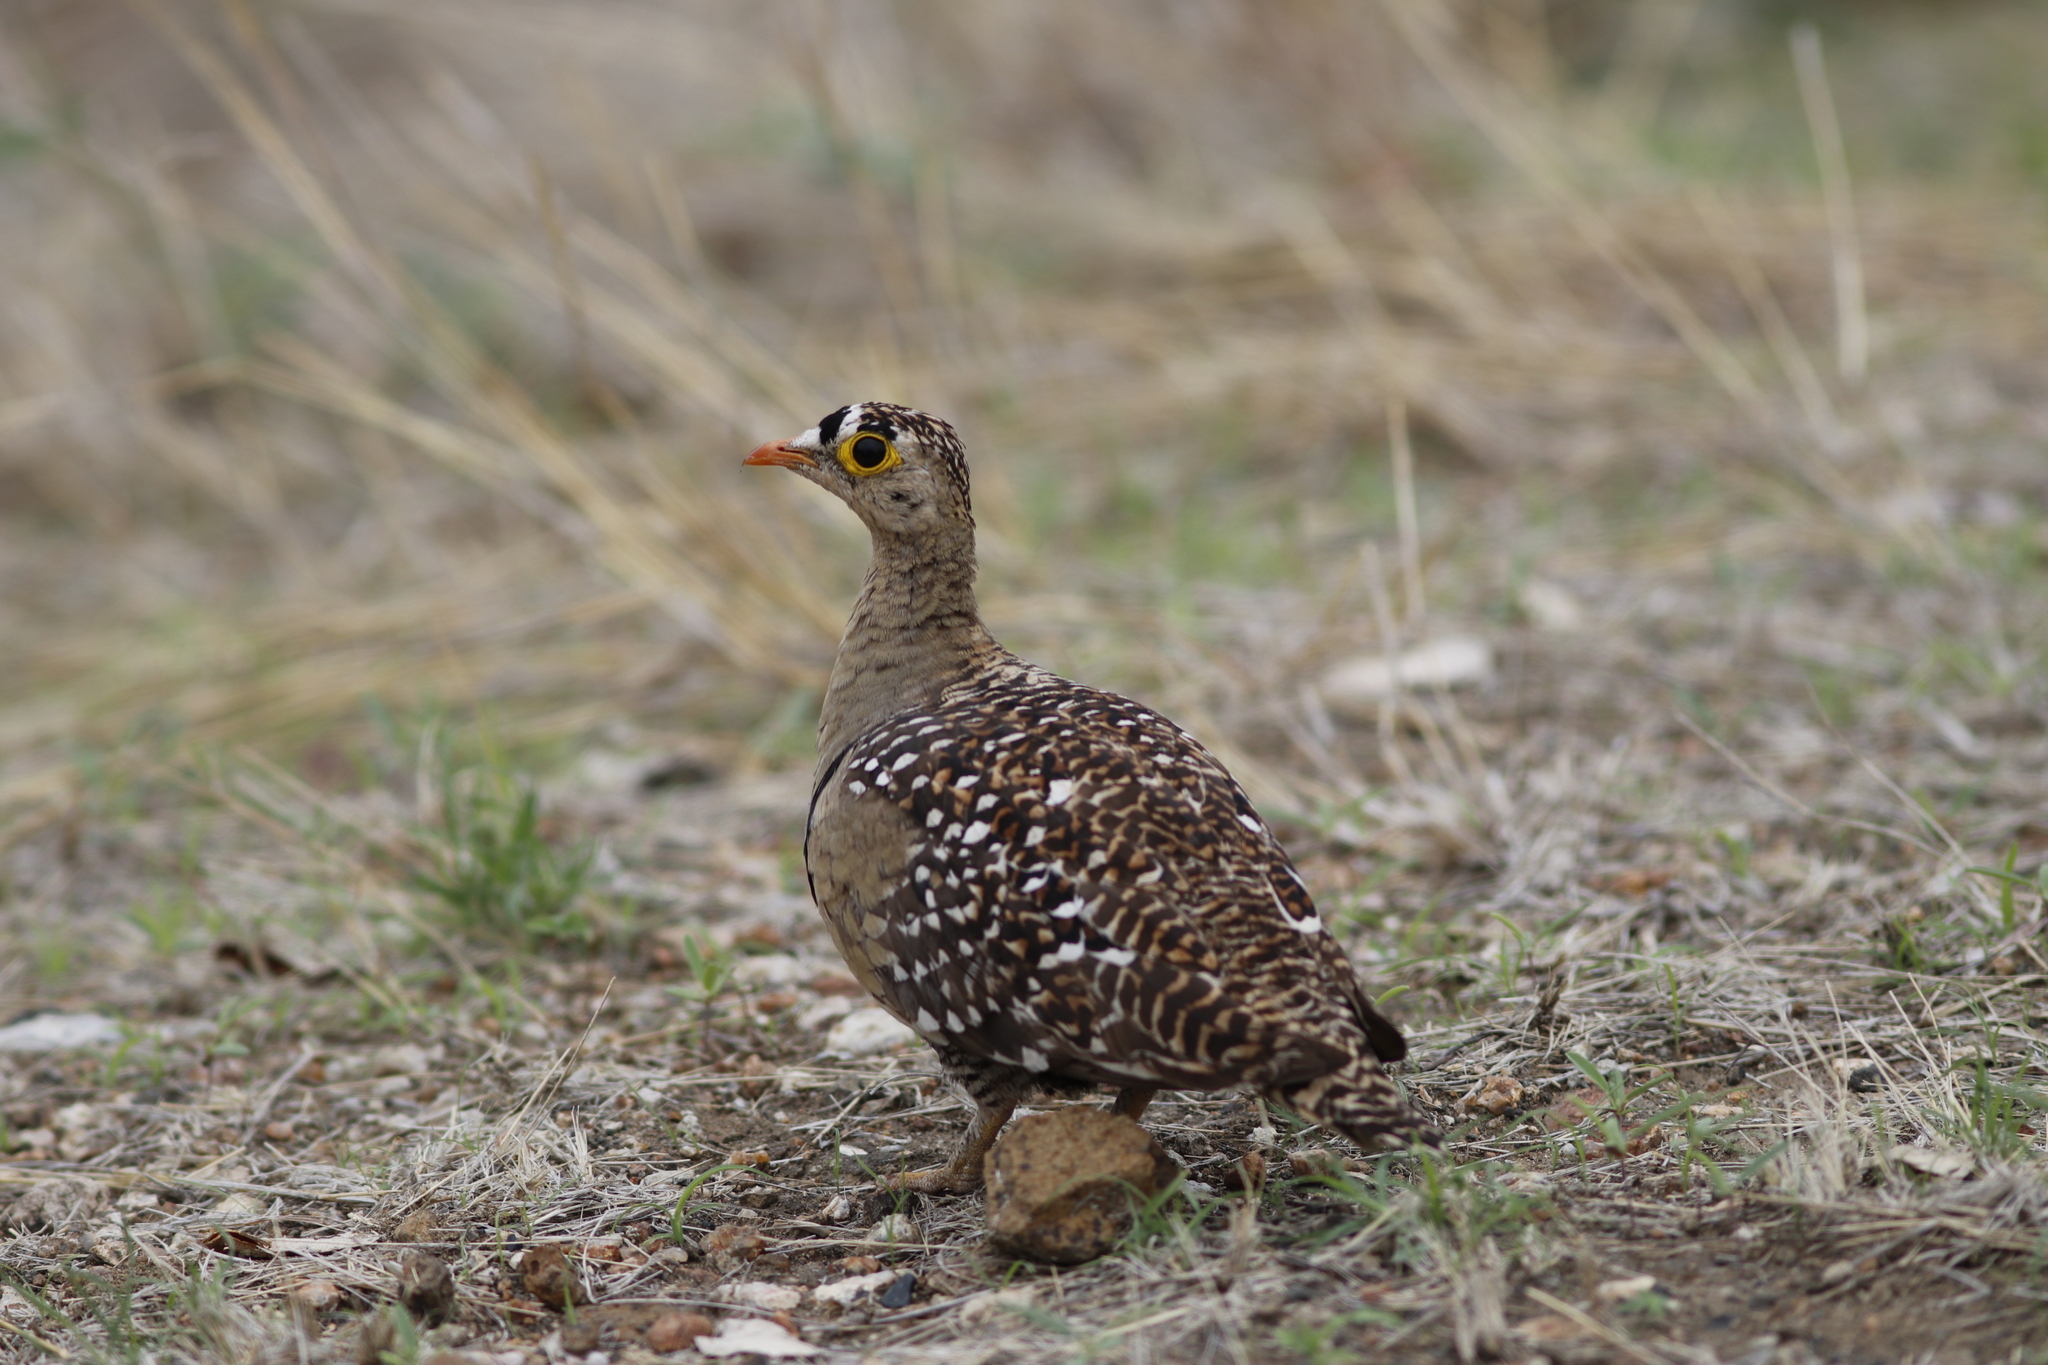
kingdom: Animalia
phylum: Chordata
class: Aves
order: Pteroclidiformes
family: Pteroclididae
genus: Pterocles
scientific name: Pterocles bicinctus
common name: Double-banded sandgrouse
